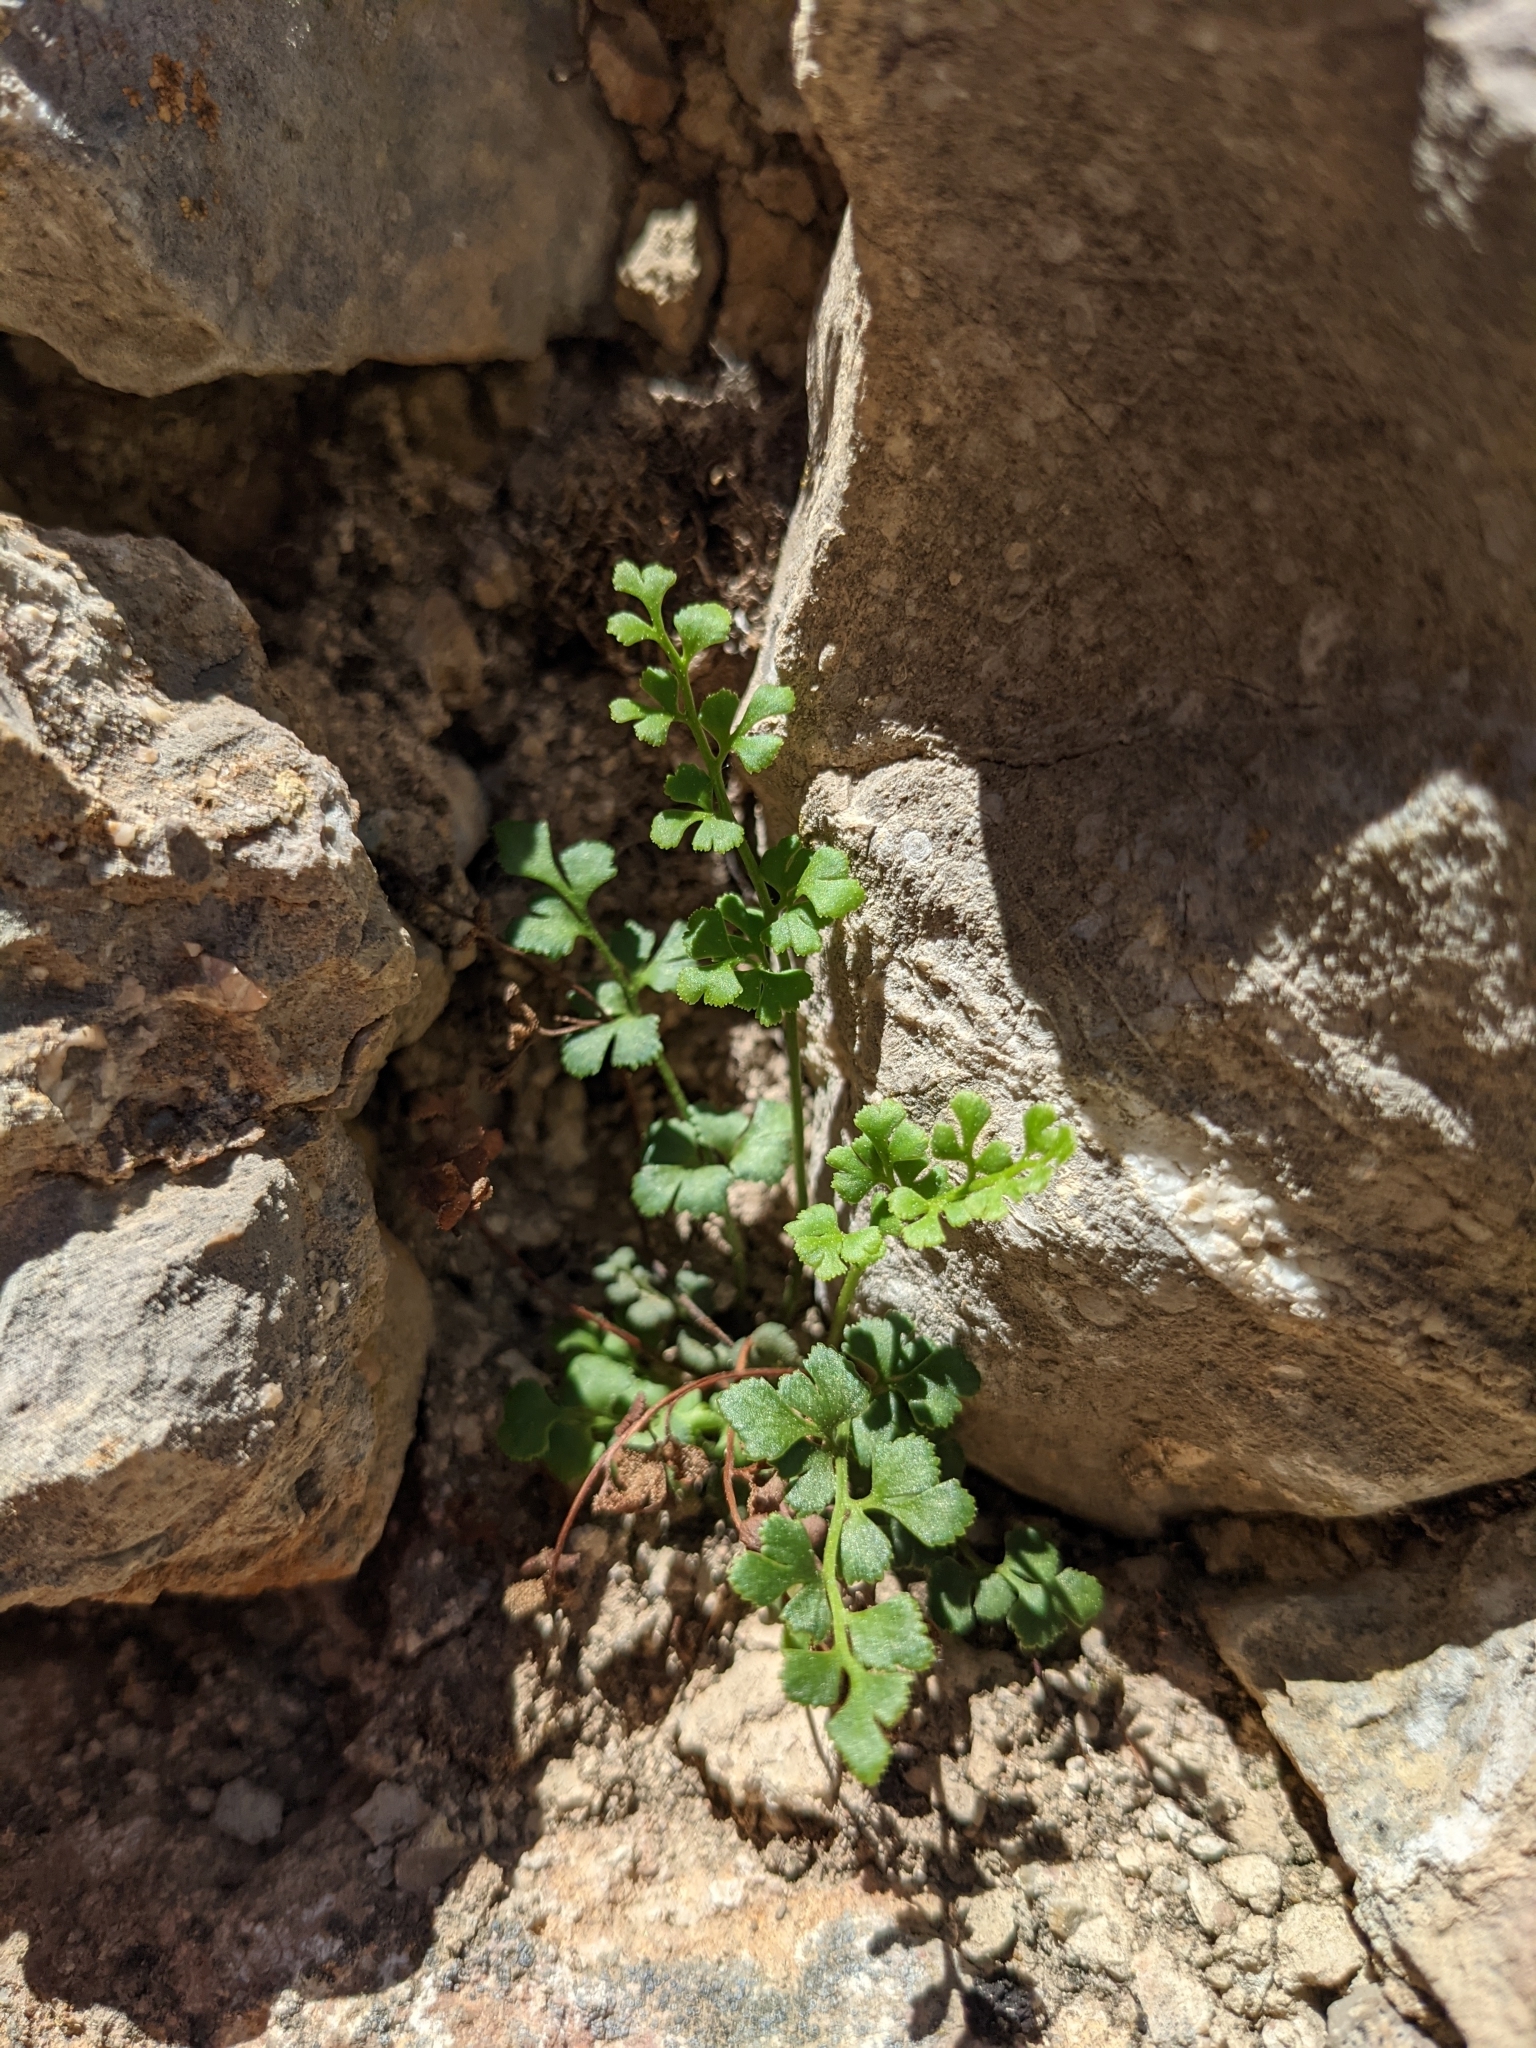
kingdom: Plantae
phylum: Tracheophyta
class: Polypodiopsida
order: Polypodiales
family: Aspleniaceae
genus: Asplenium
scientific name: Asplenium ruta-muraria
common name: Wall-rue
